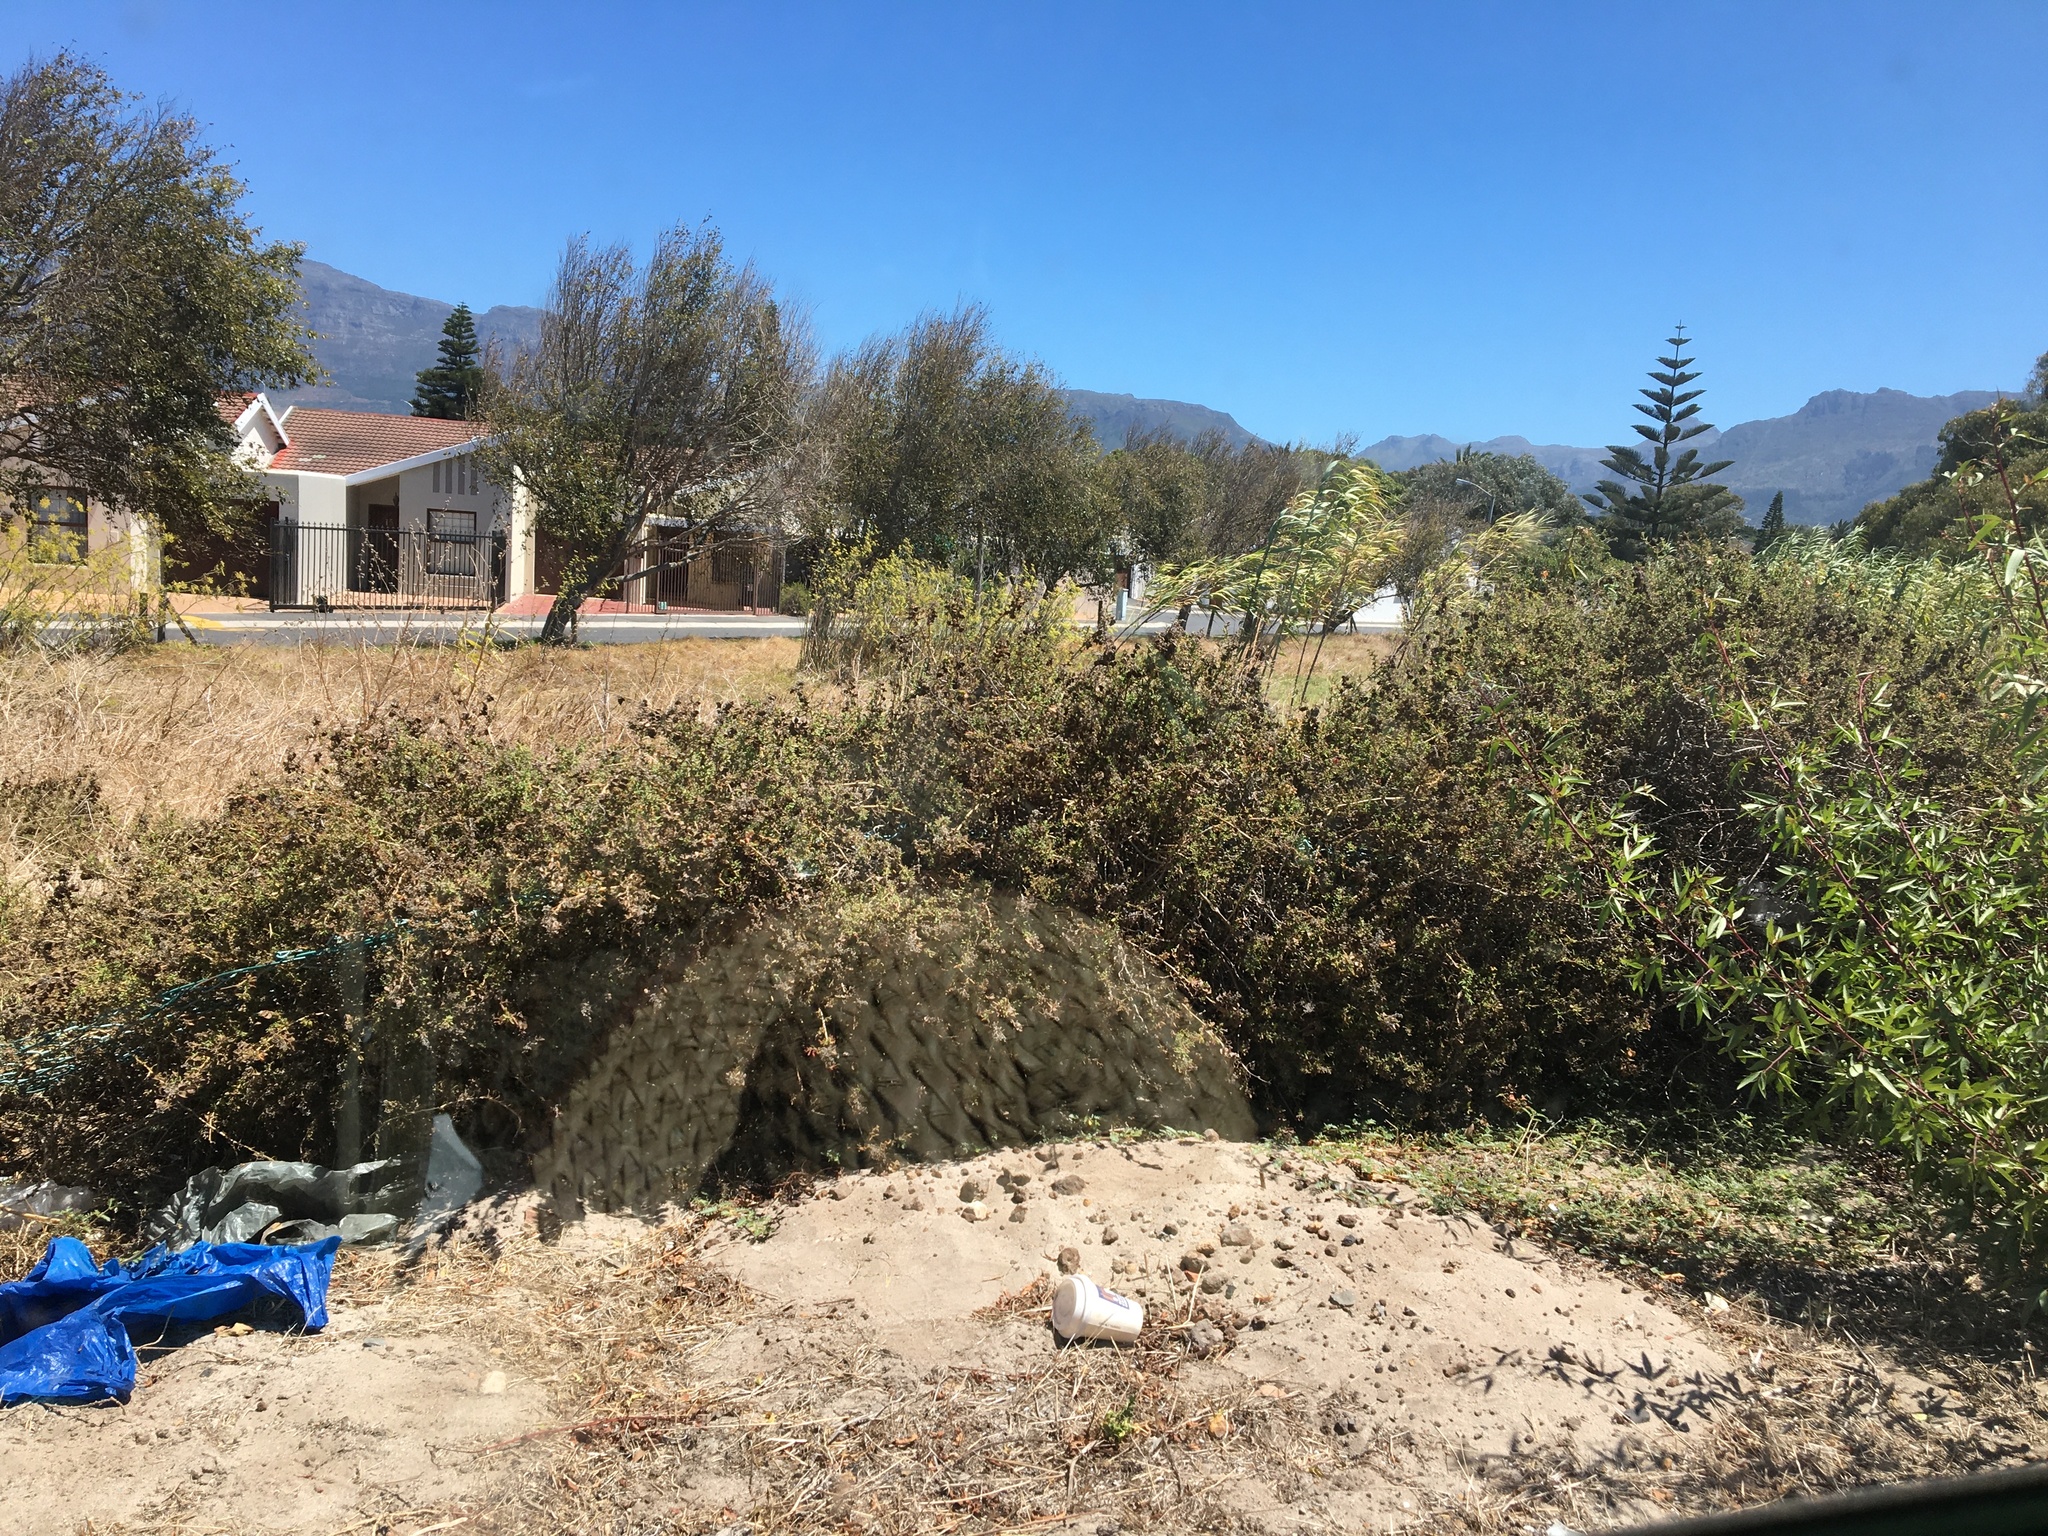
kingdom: Plantae
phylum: Tracheophyta
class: Magnoliopsida
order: Caryophyllales
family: Aizoaceae
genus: Tetragonia
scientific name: Tetragonia fruticosa
